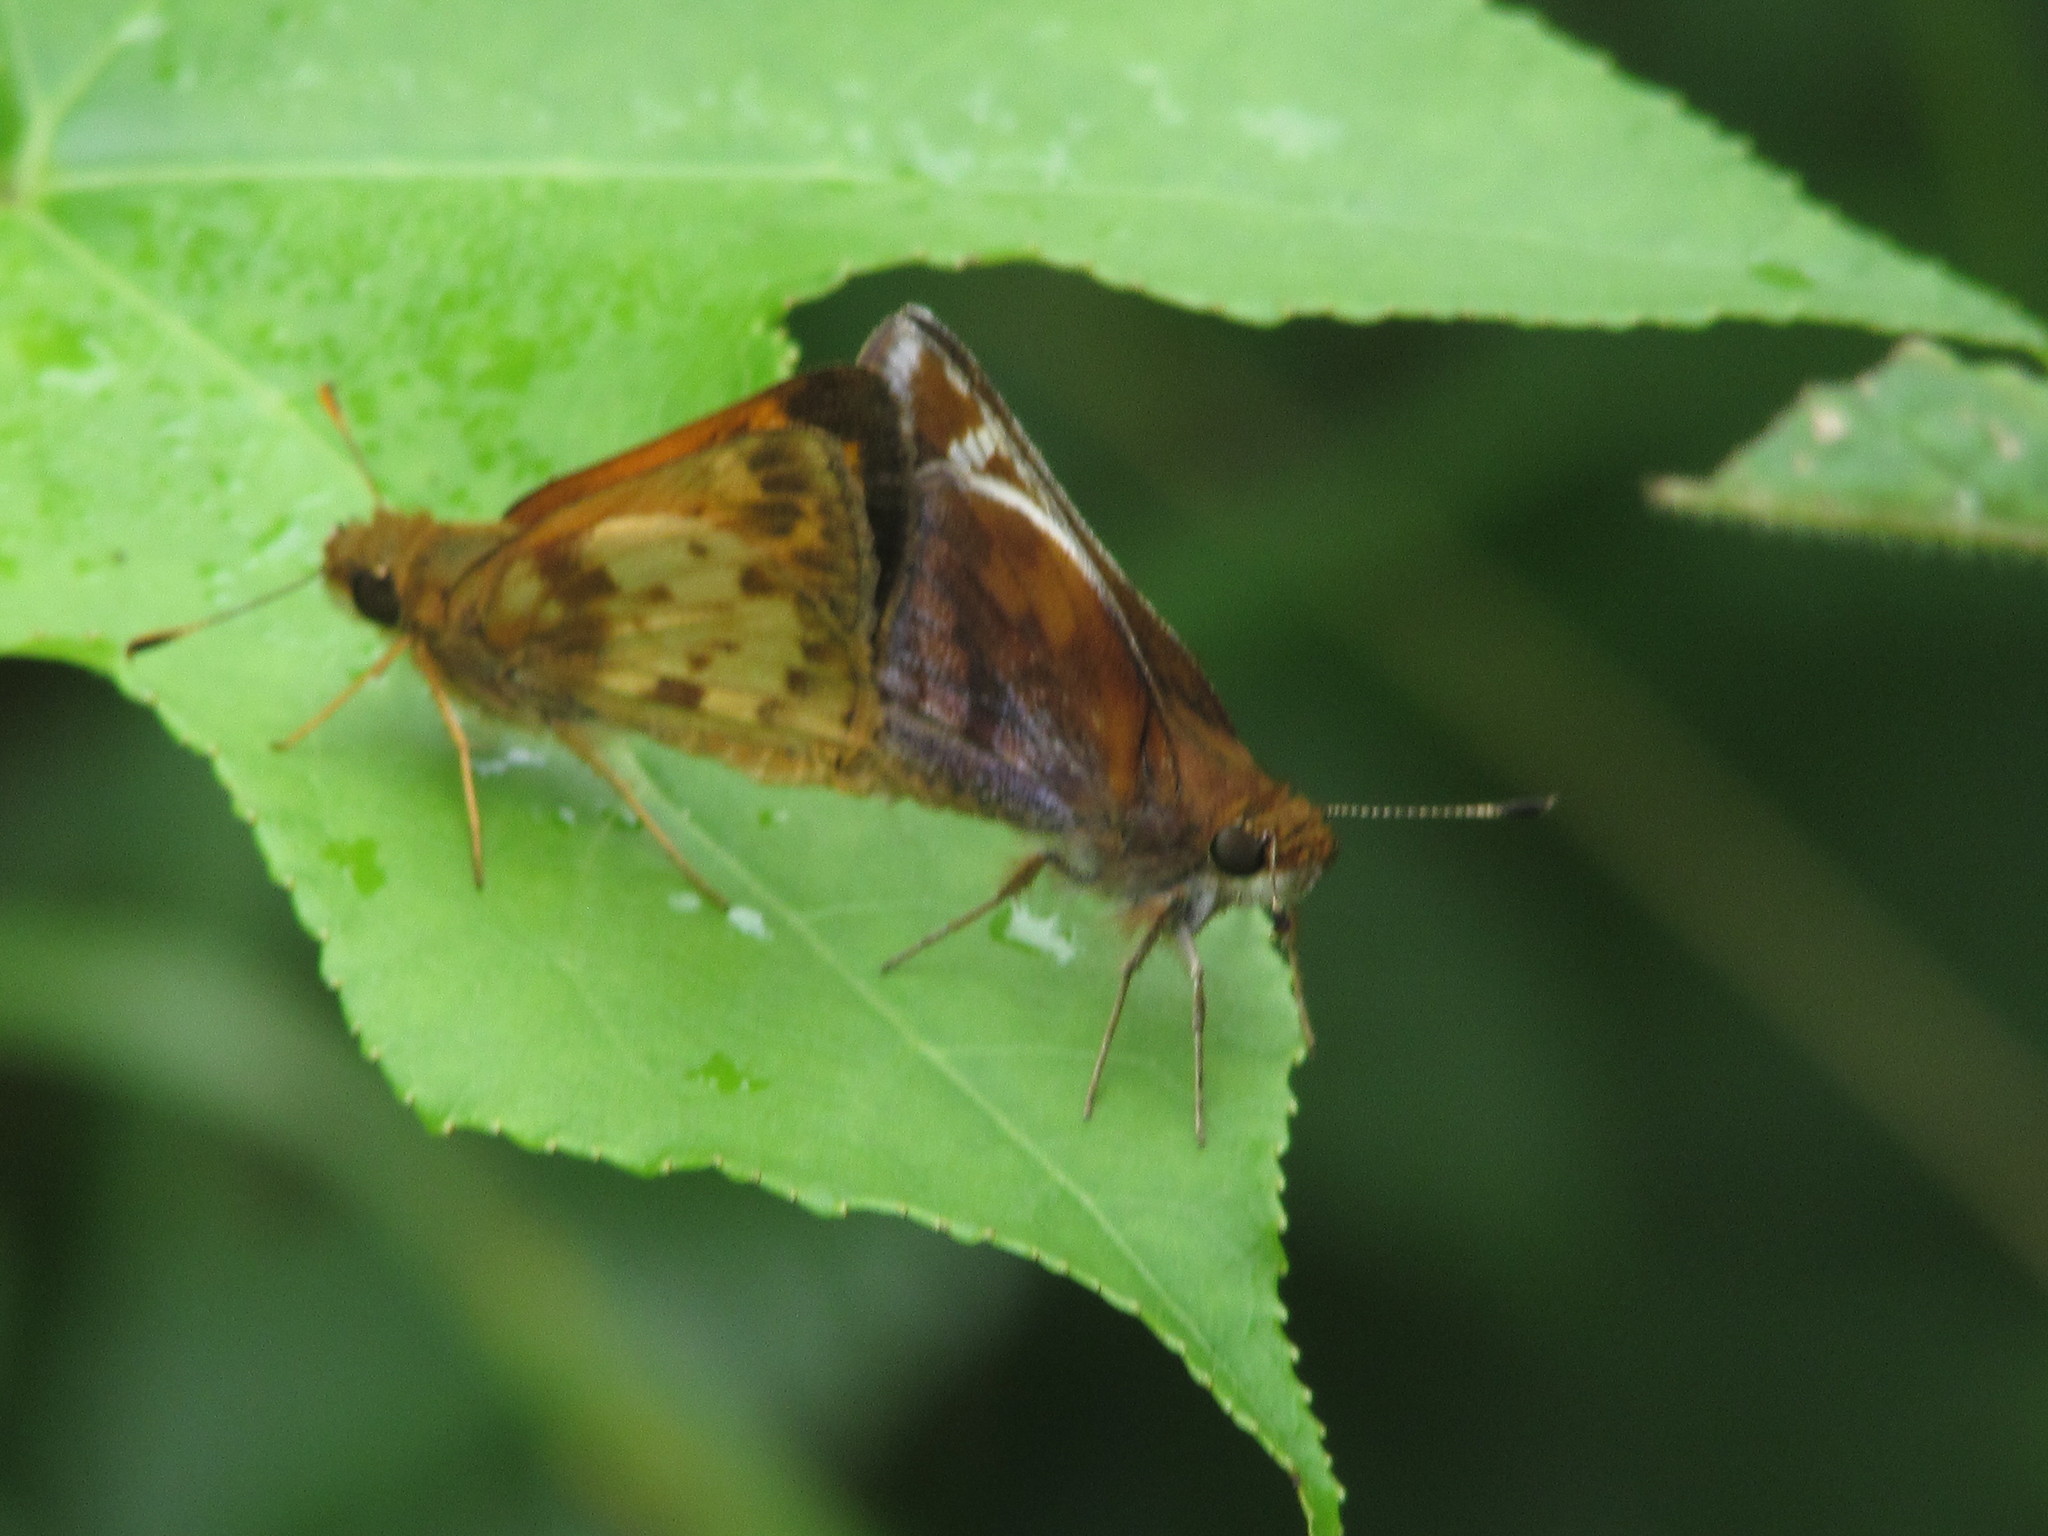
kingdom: Animalia
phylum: Arthropoda
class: Insecta
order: Lepidoptera
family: Hesperiidae
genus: Lon
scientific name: Lon zabulon
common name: Zabulon skipper
